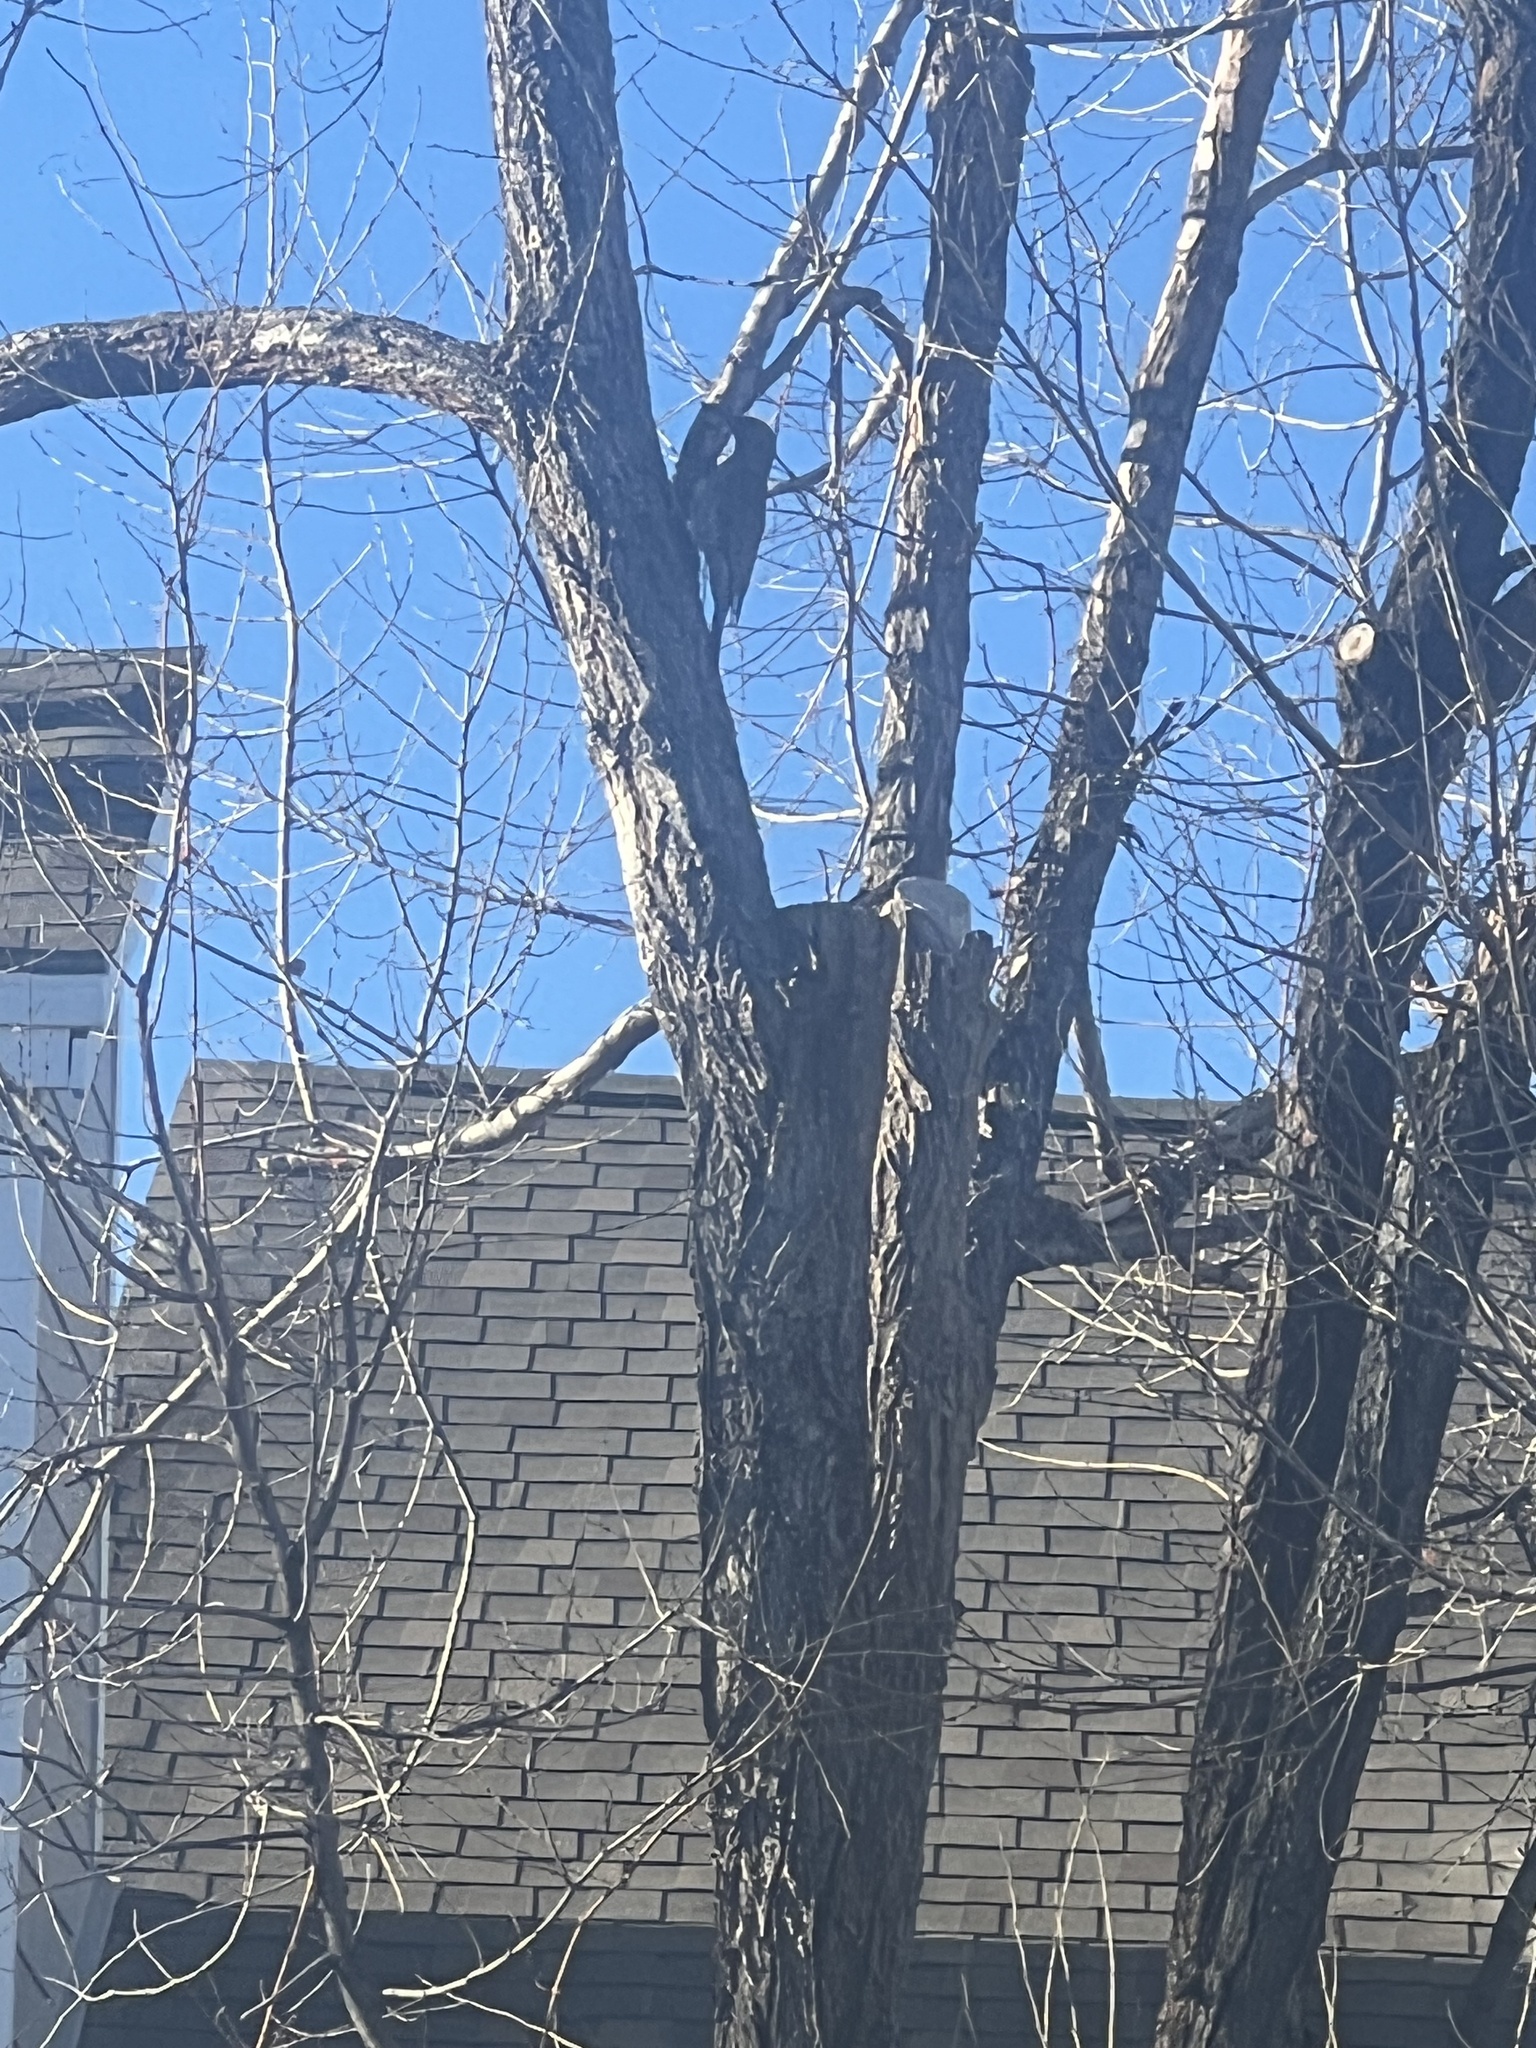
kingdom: Animalia
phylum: Chordata
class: Aves
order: Piciformes
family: Picidae
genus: Colaptes
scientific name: Colaptes auratus
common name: Northern flicker
